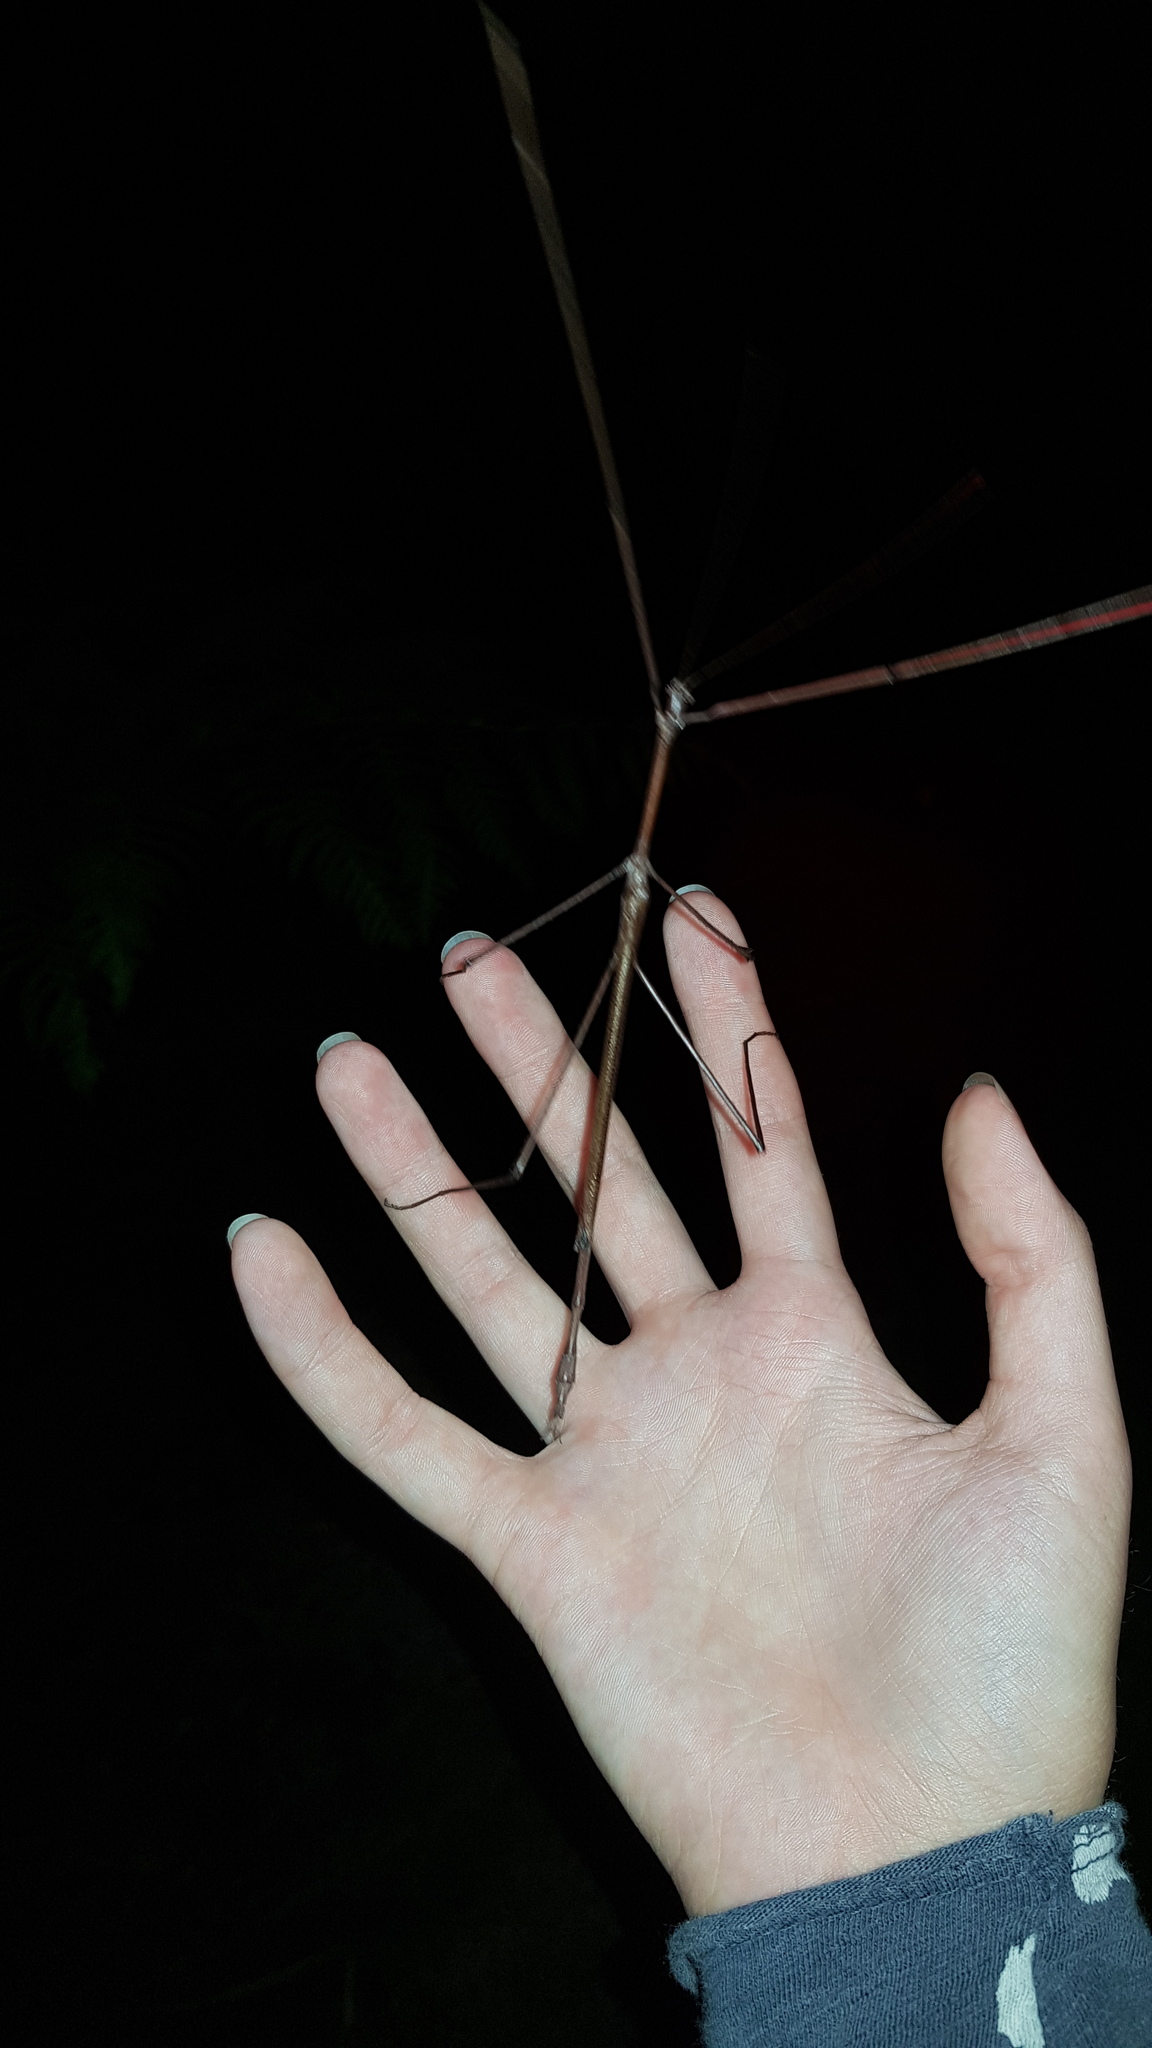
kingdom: Animalia
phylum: Arthropoda
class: Insecta
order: Phasmida
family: Phasmatidae
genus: Ctenomorpha
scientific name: Ctenomorpha marginipennis
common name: Margined-winged stick-insect
